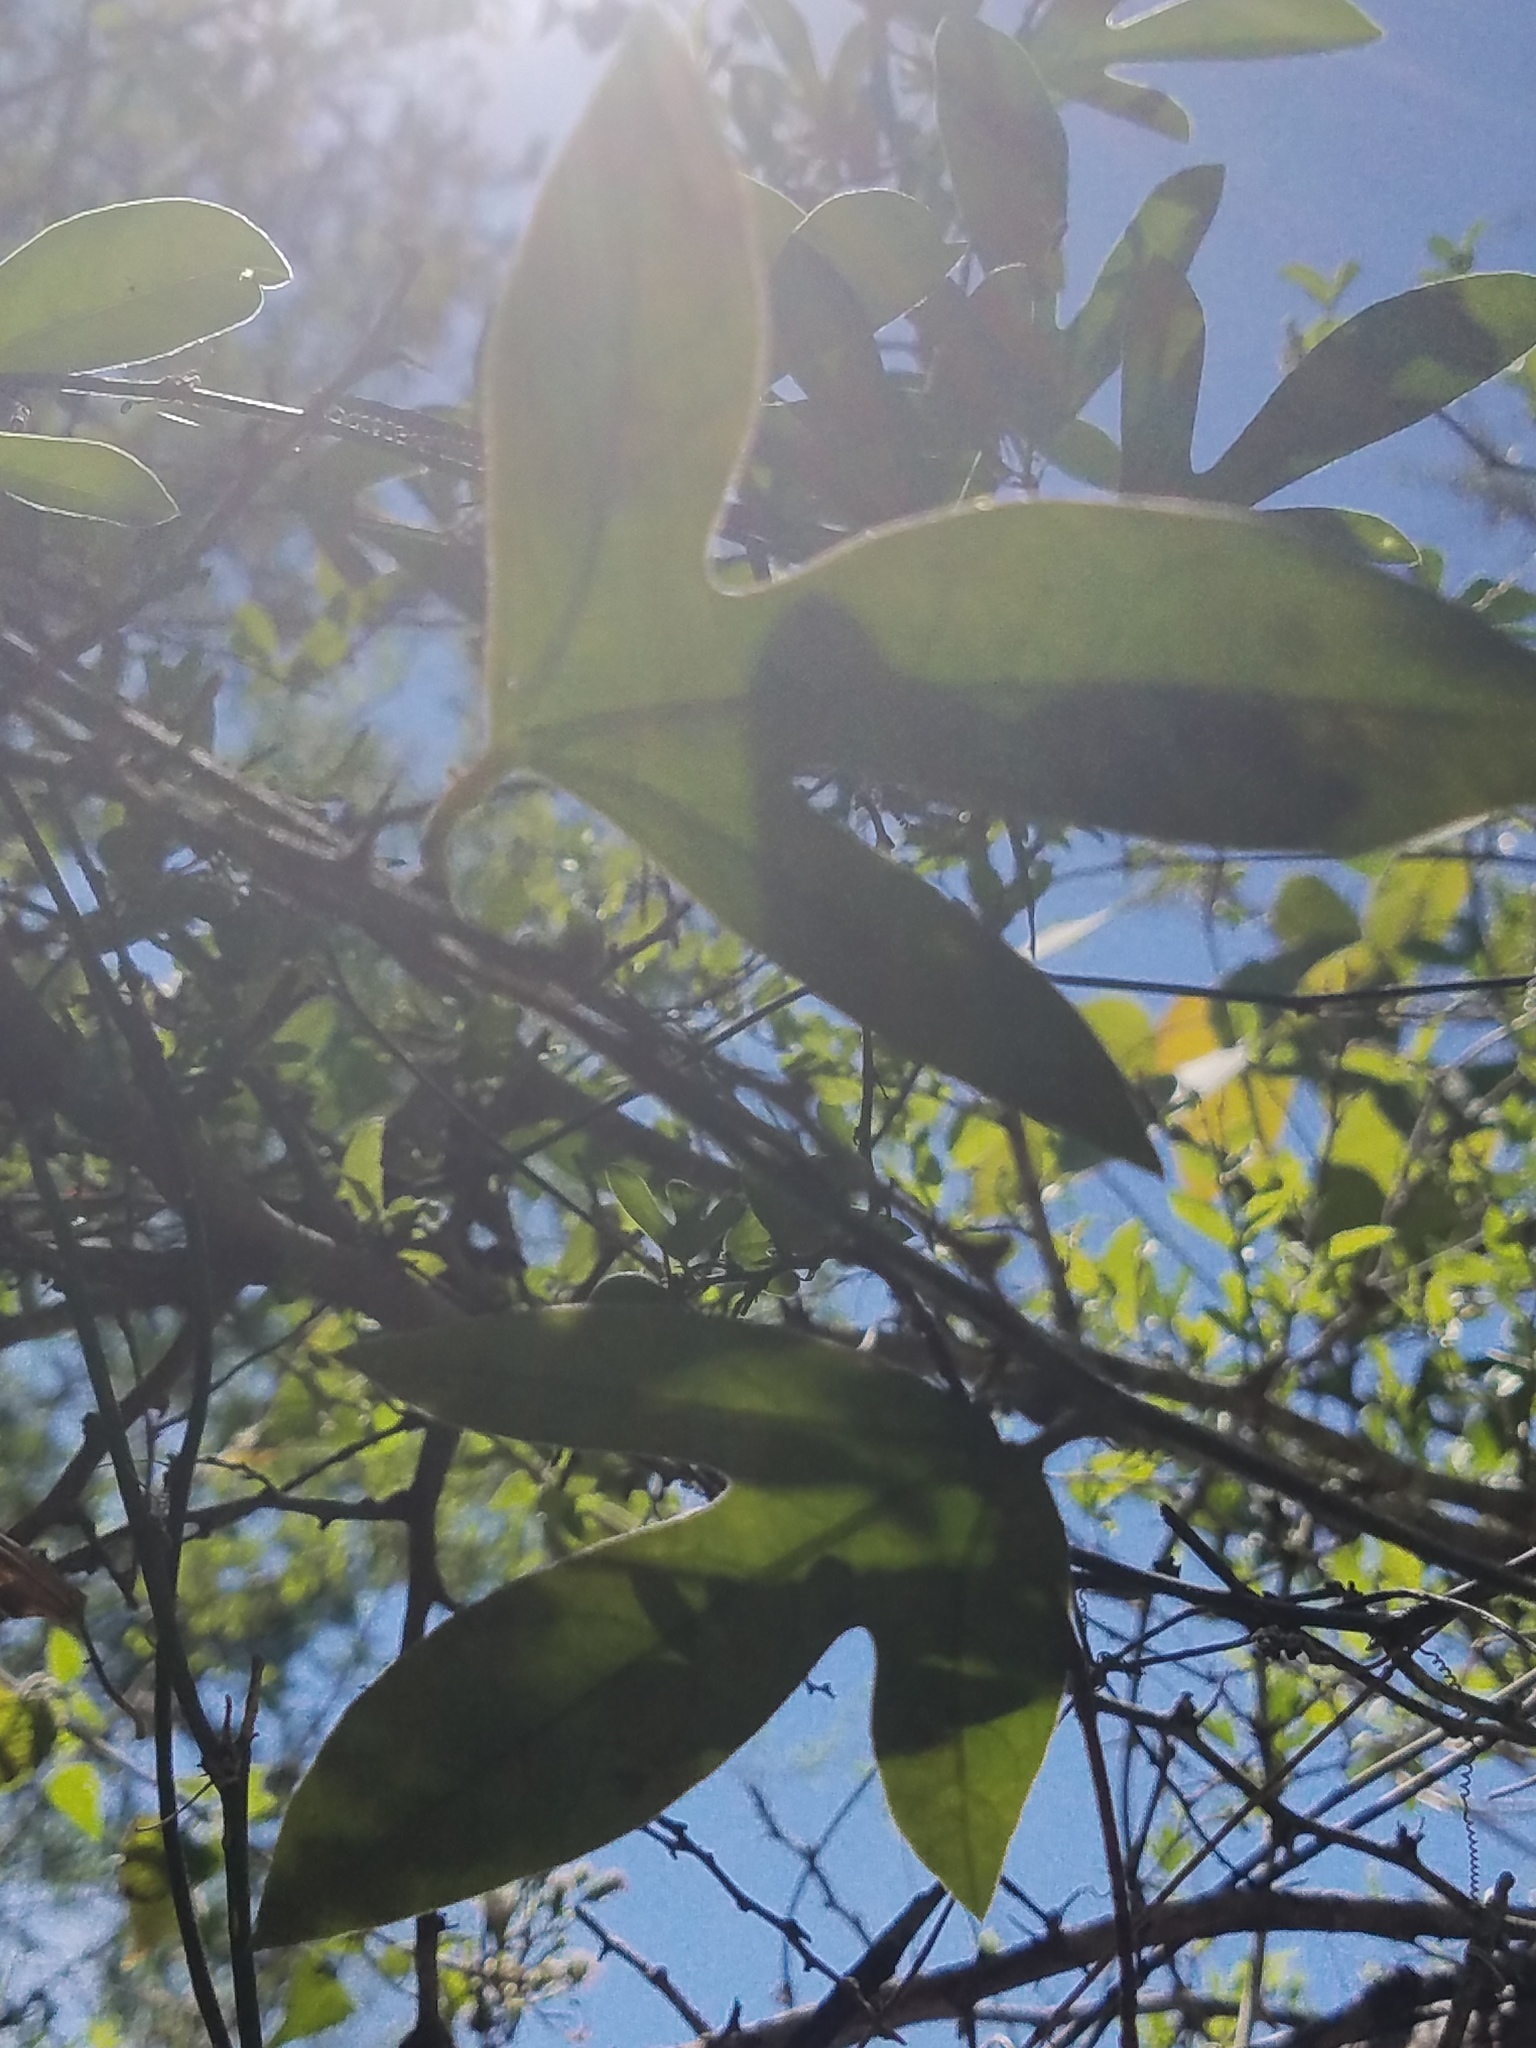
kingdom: Plantae
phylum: Tracheophyta
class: Magnoliopsida
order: Malpighiales
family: Passifloraceae
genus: Passiflora
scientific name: Passiflora pallida
